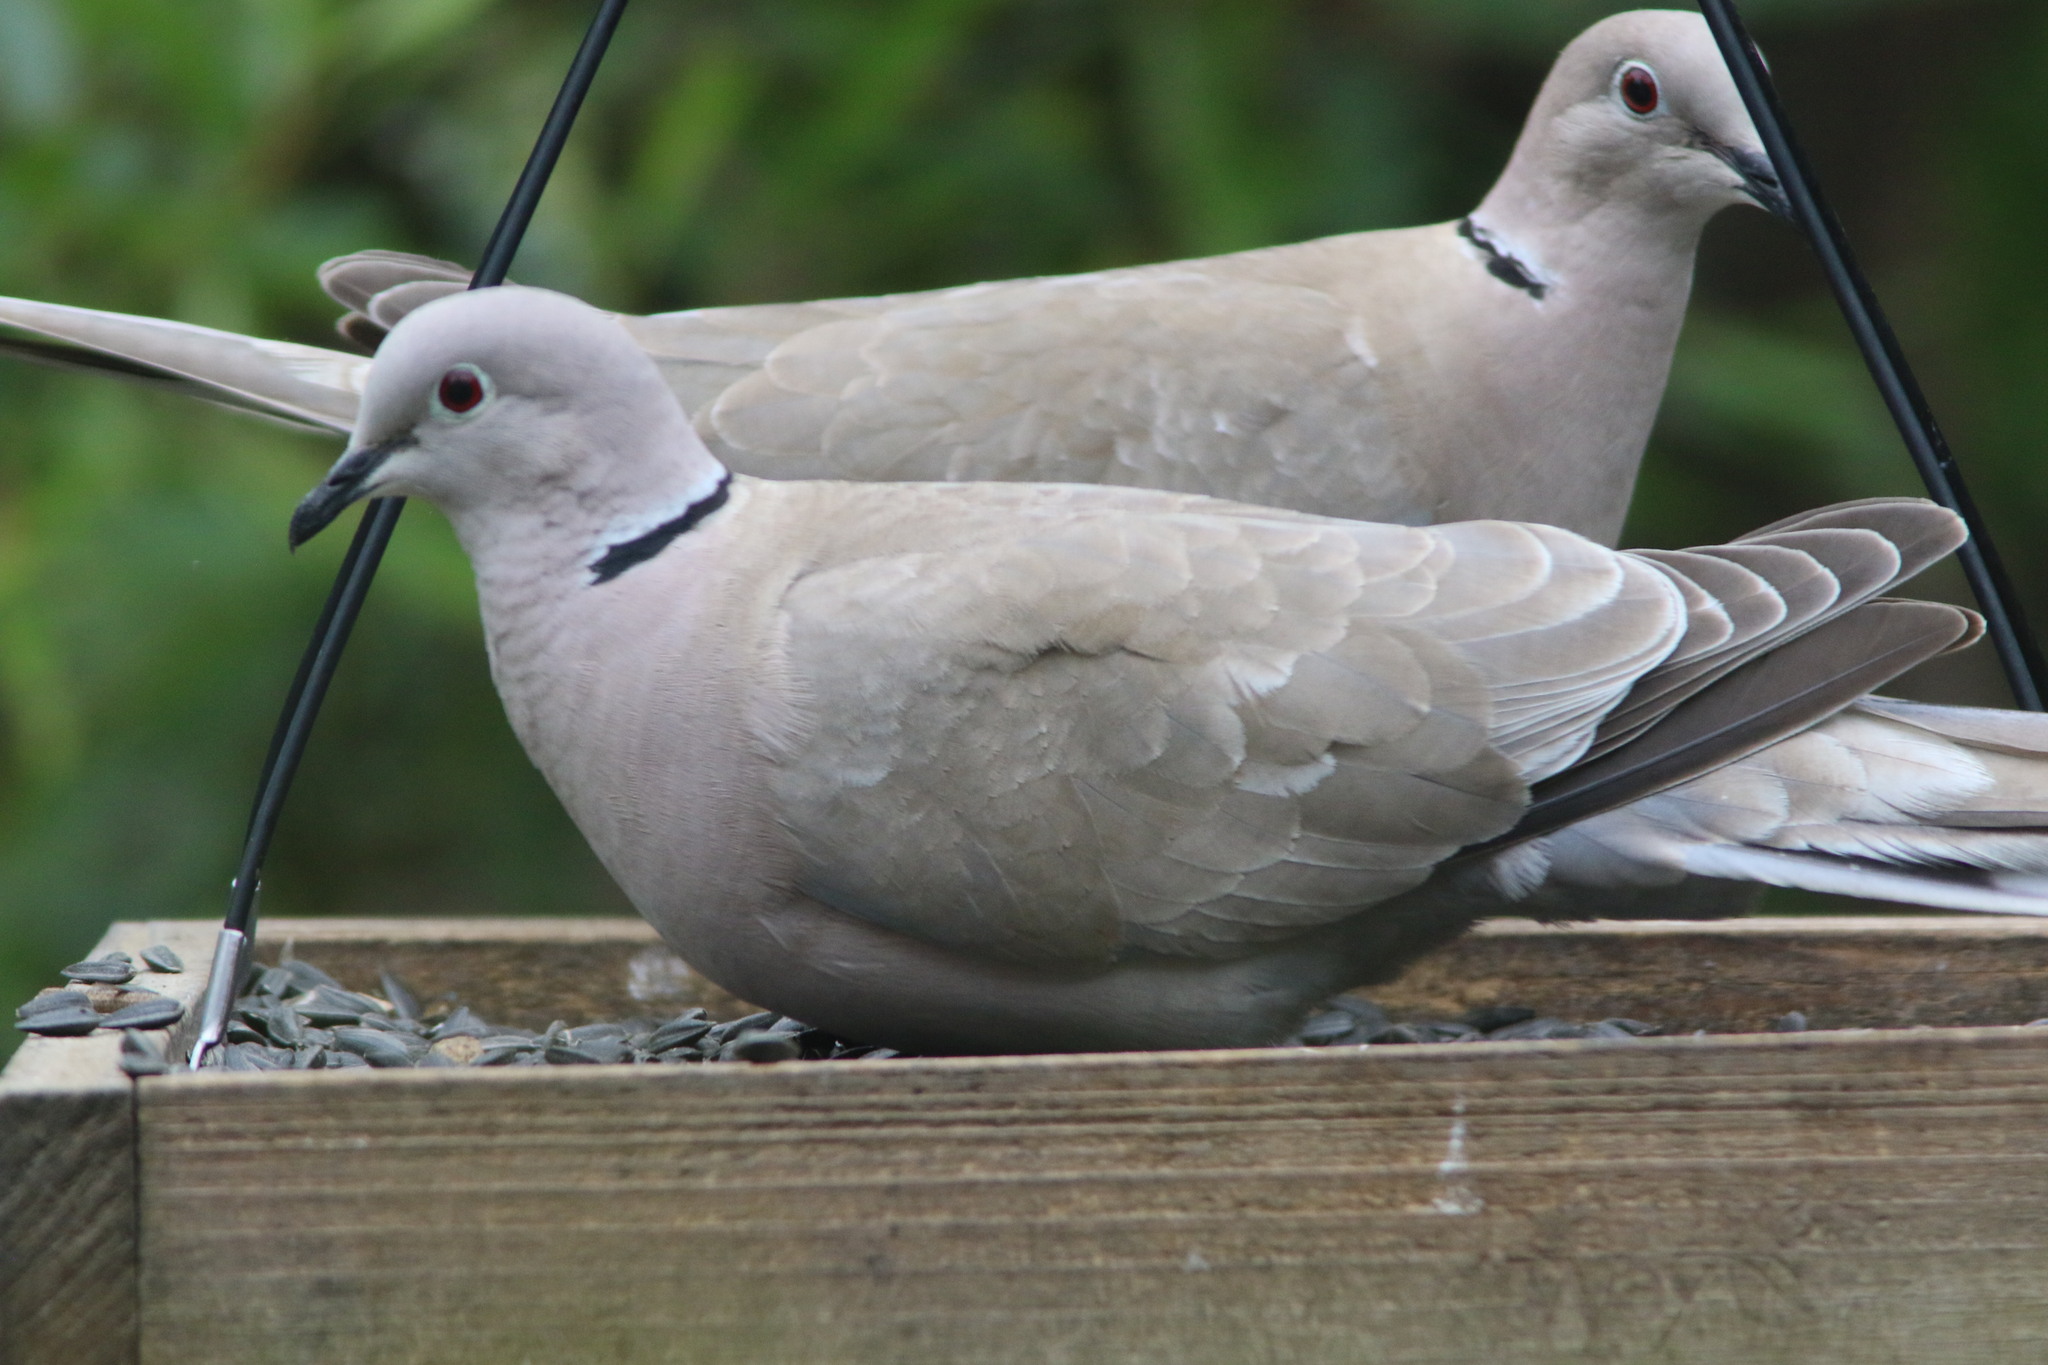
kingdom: Animalia
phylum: Chordata
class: Aves
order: Columbiformes
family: Columbidae
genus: Streptopelia
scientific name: Streptopelia decaocto
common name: Eurasian collared dove
